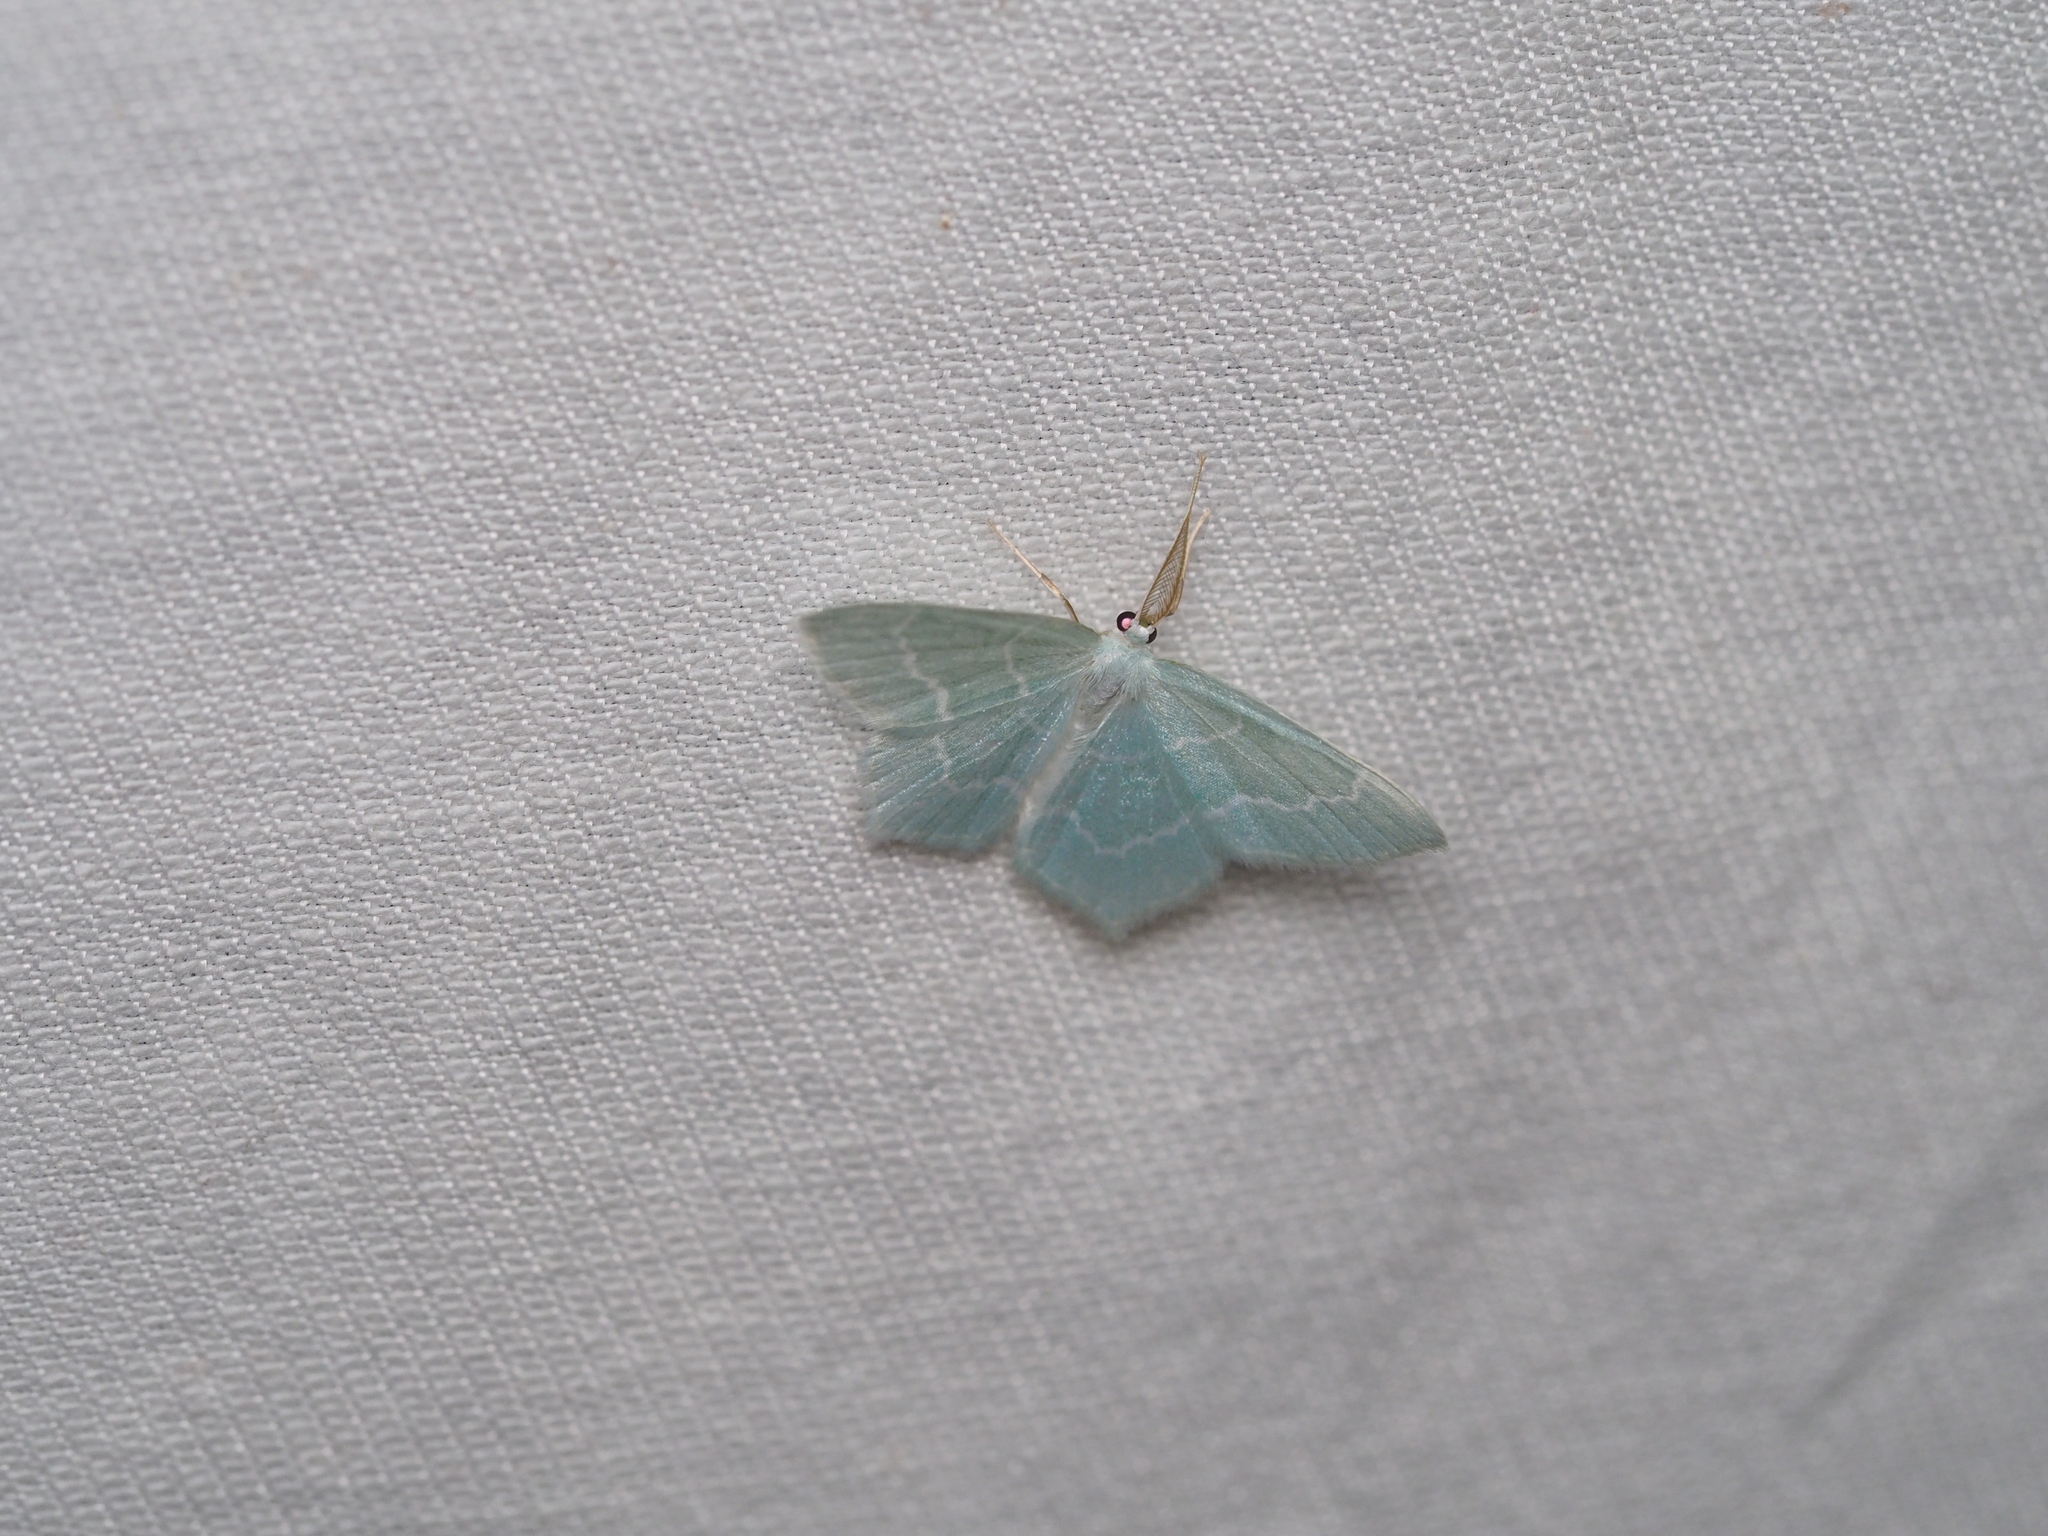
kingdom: Animalia
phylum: Arthropoda
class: Insecta
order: Lepidoptera
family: Geometridae
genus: Jodis
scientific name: Jodis putata
